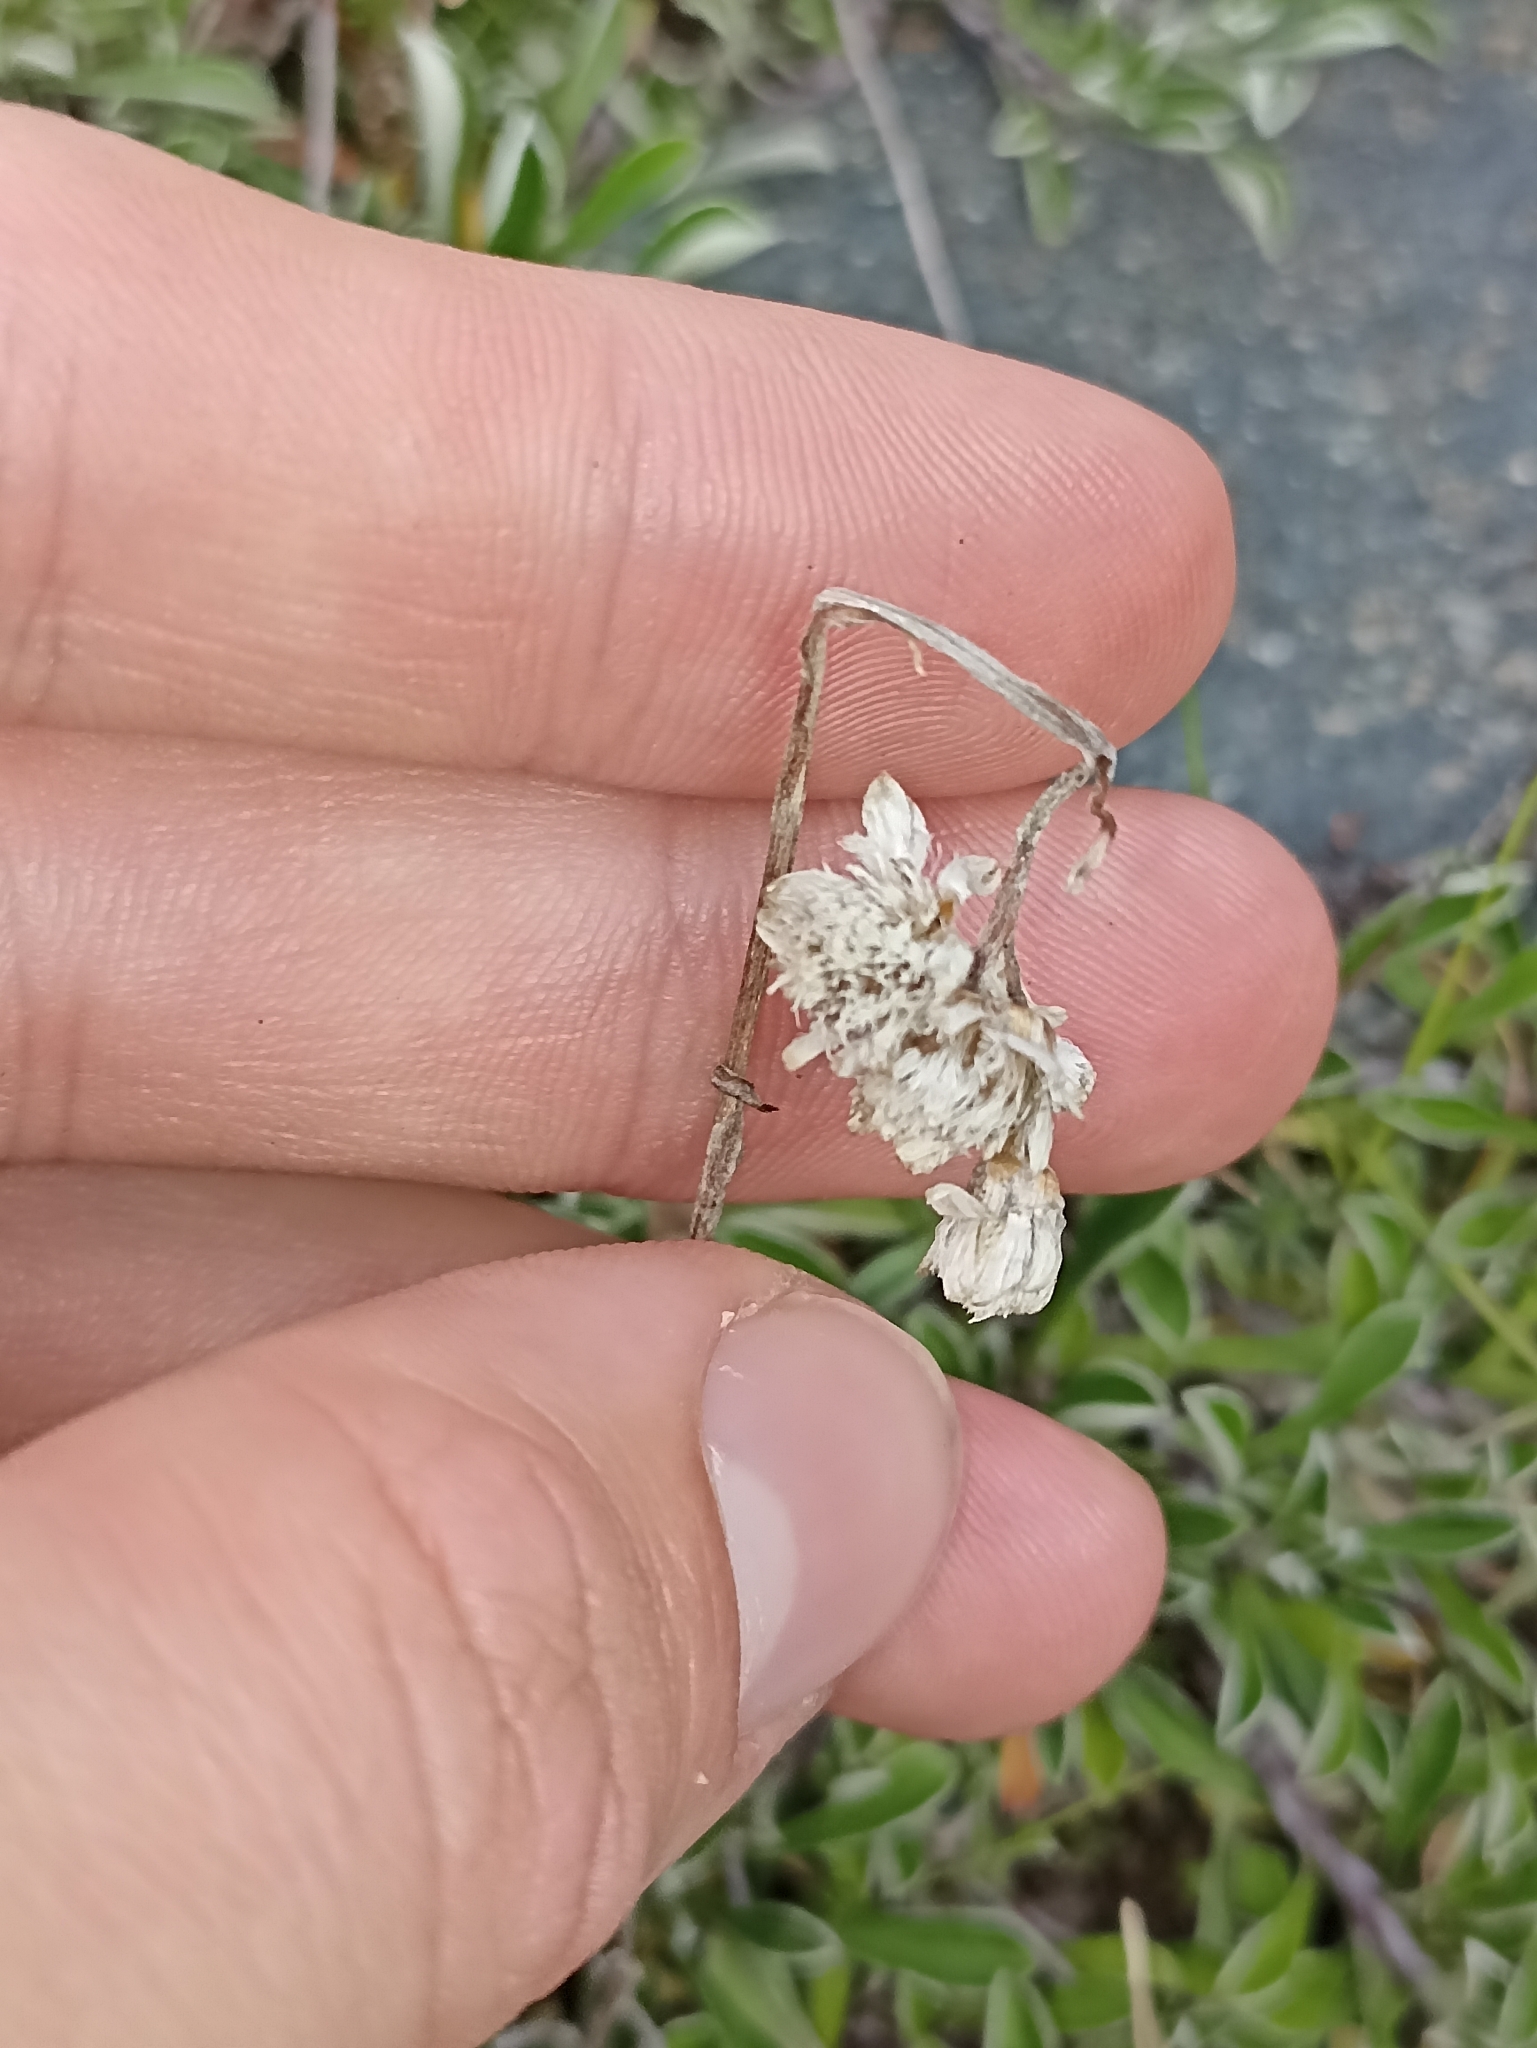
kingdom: Plantae
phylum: Tracheophyta
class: Magnoliopsida
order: Asterales
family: Asteraceae
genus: Antennaria
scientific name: Antennaria dioica
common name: Mountain everlasting
